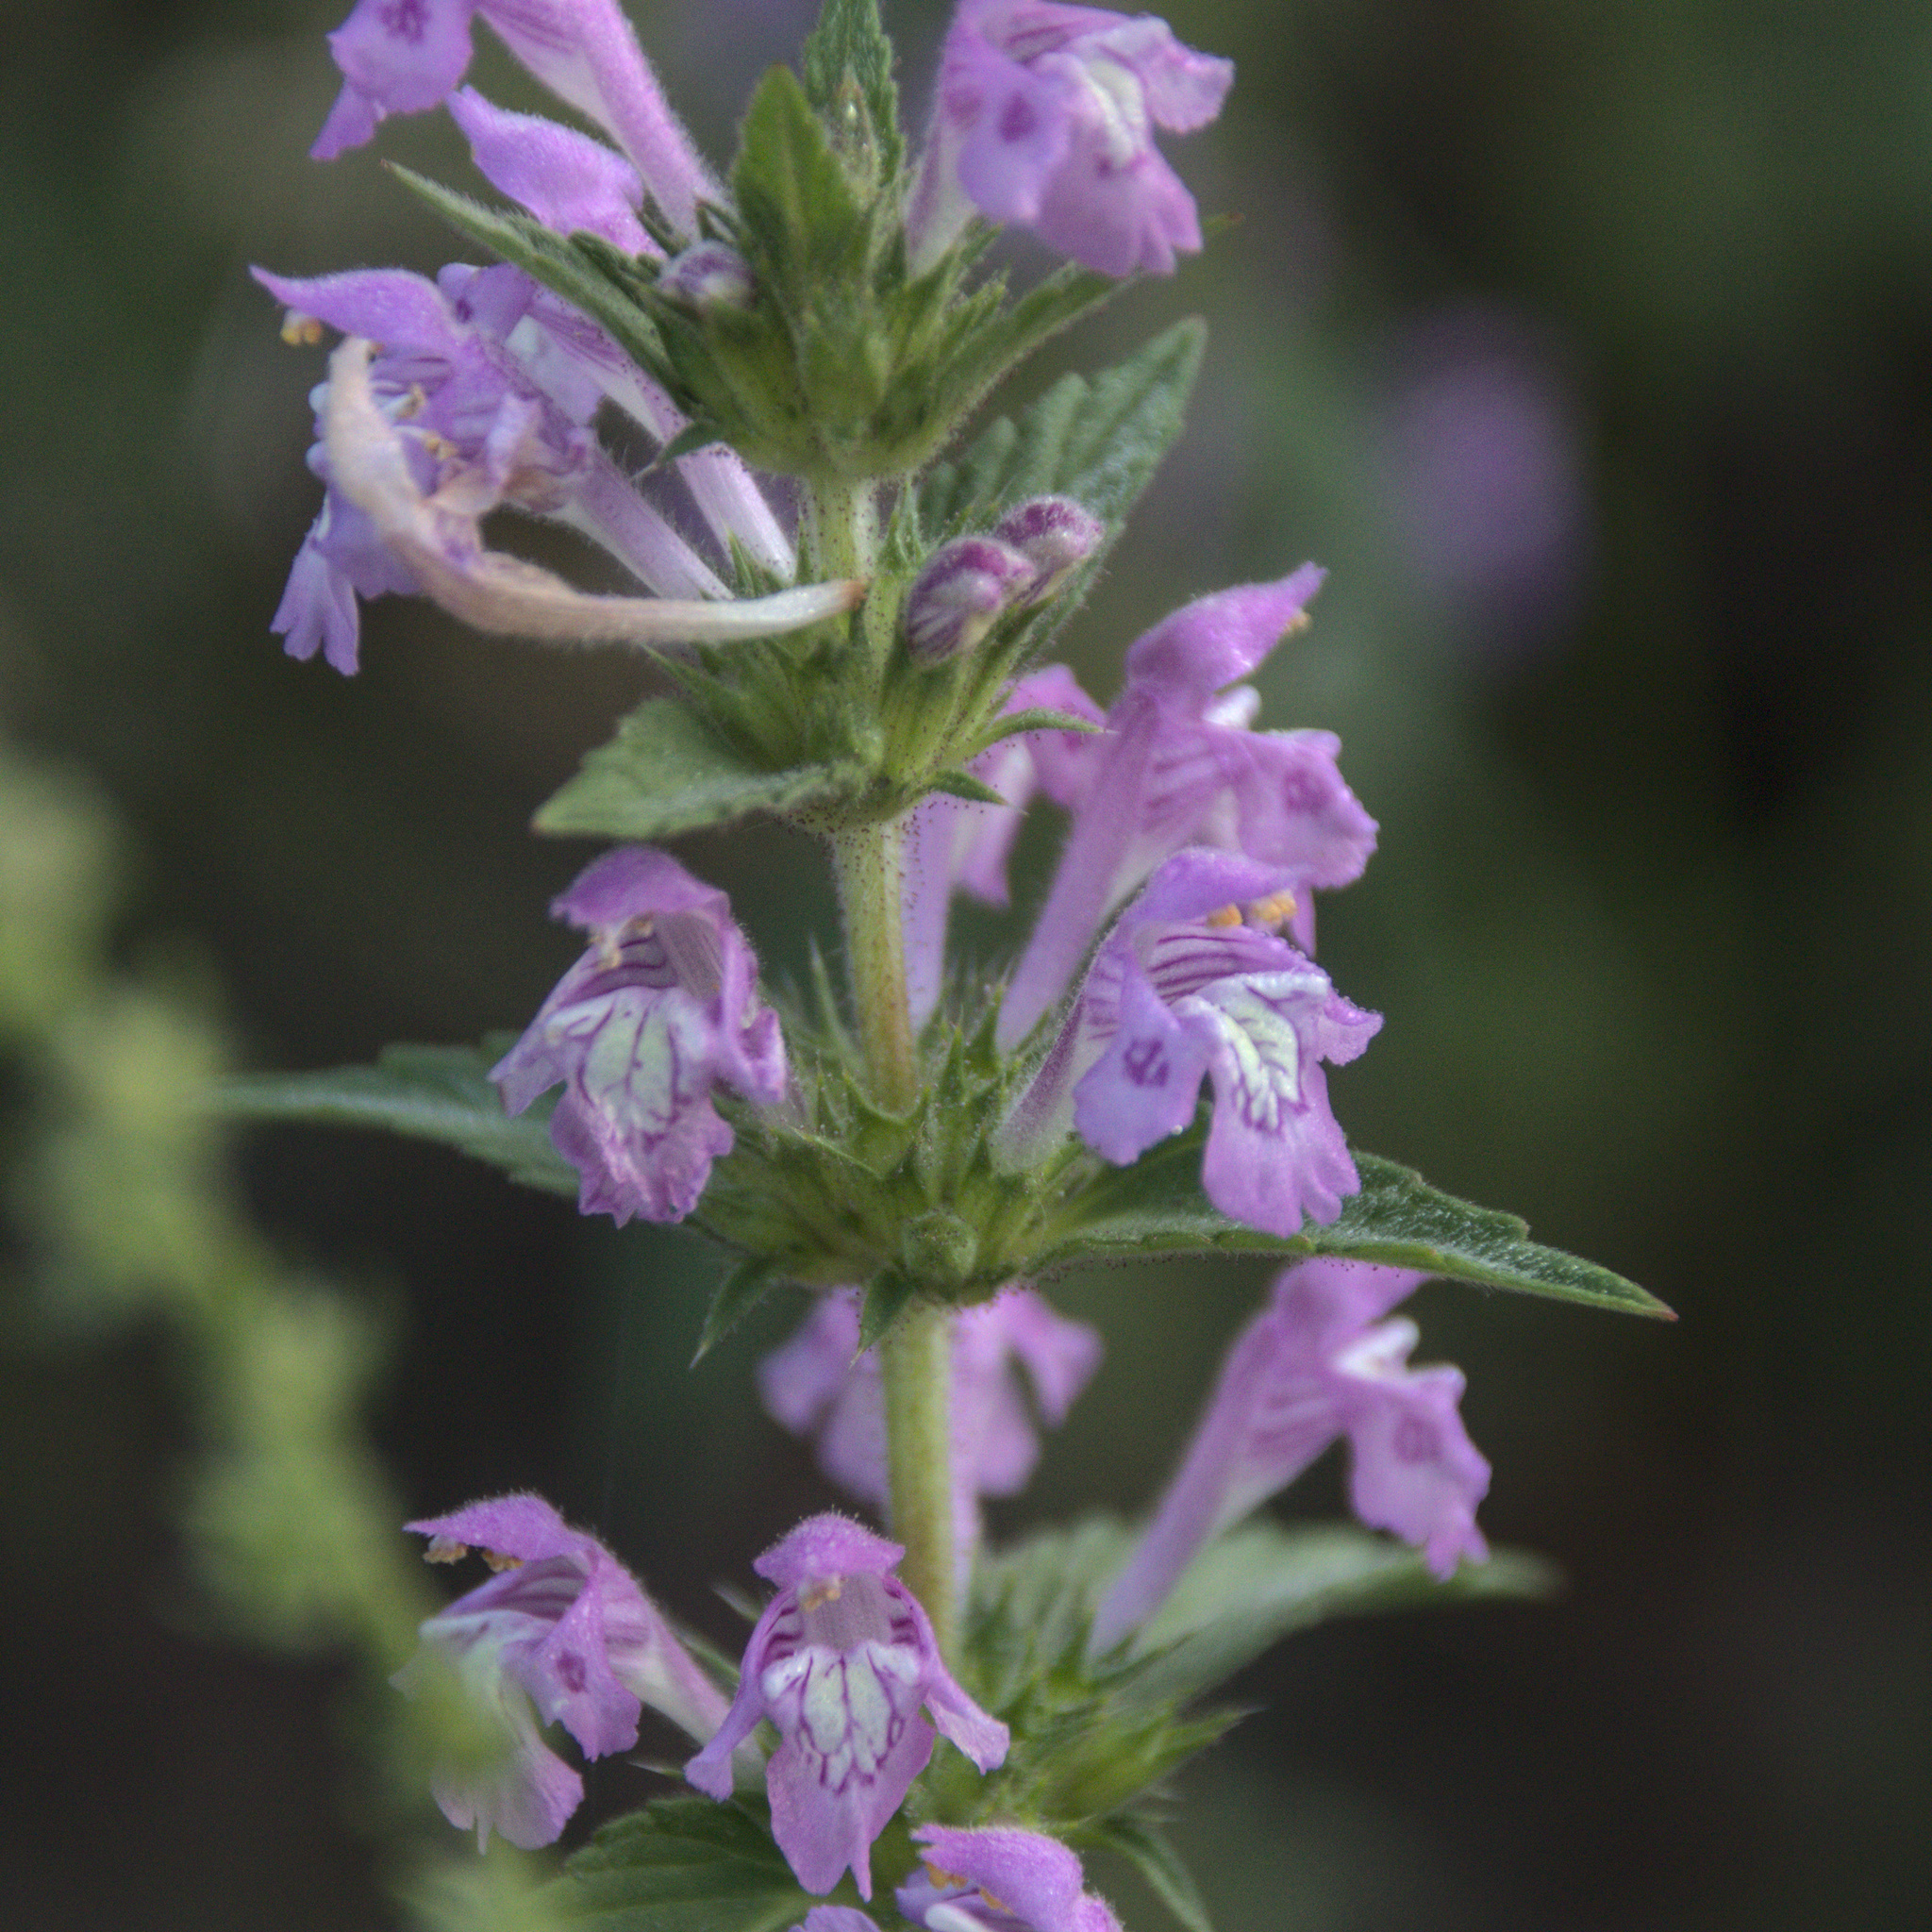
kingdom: Plantae
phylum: Tracheophyta
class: Magnoliopsida
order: Lamiales
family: Lamiaceae
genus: Galeopsis
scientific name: Galeopsis ladanum
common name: Broad-leaved hemp-nettle
